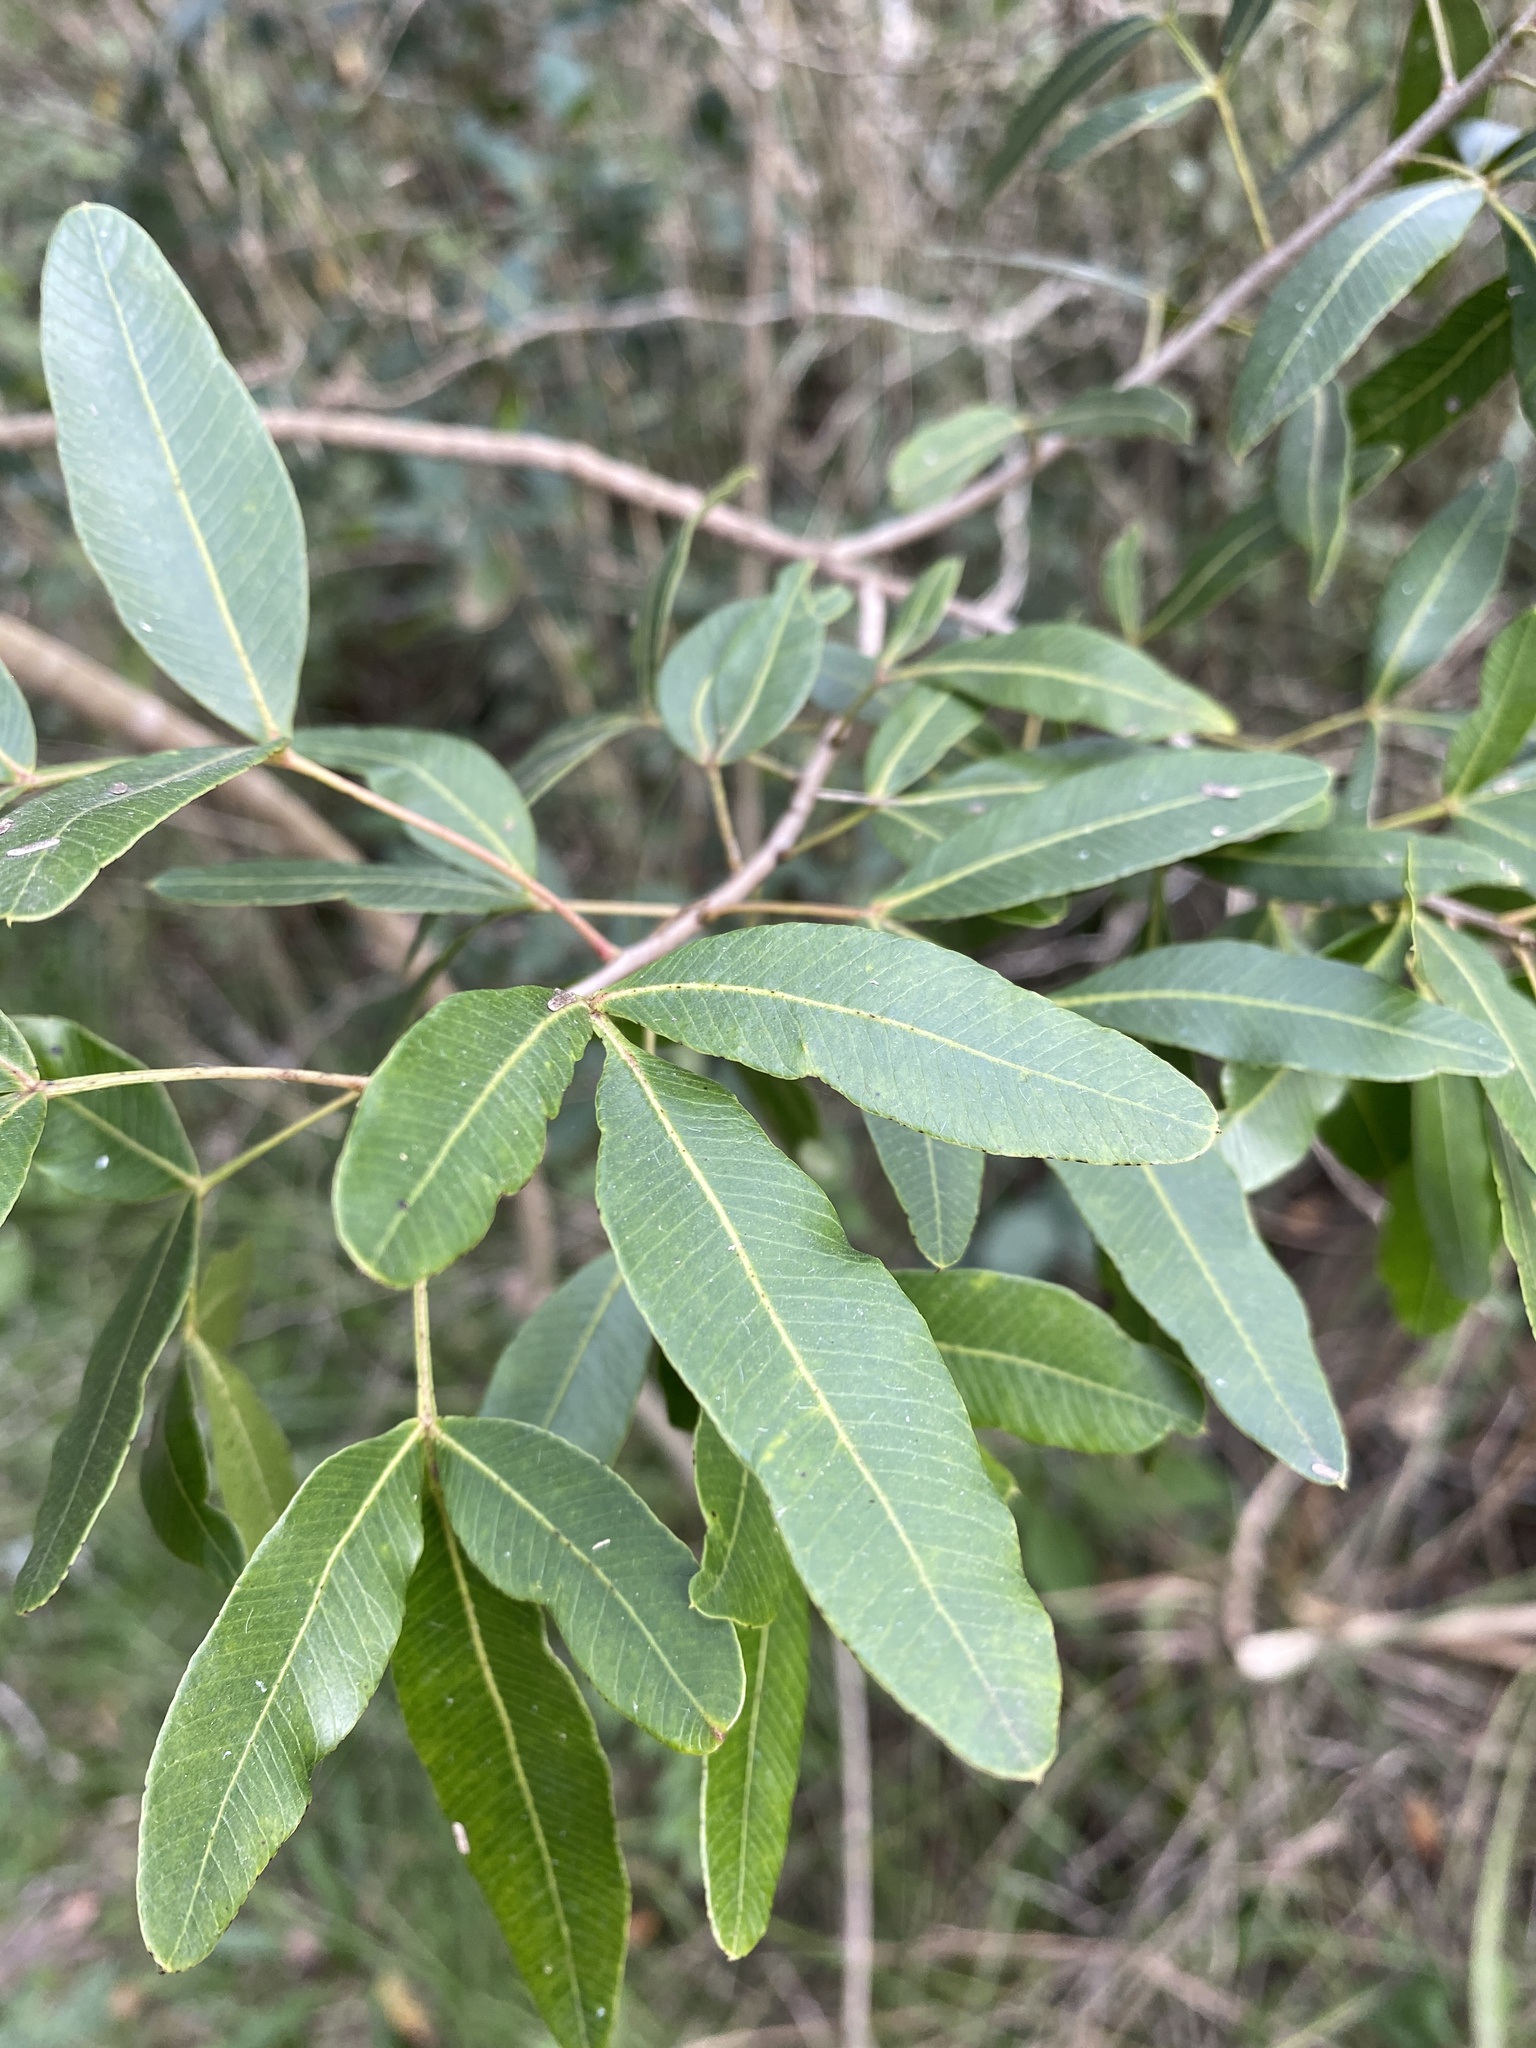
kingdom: Plantae
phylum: Tracheophyta
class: Magnoliopsida
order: Sapindales
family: Anacardiaceae
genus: Lithraea
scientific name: Lithraea molleoides
